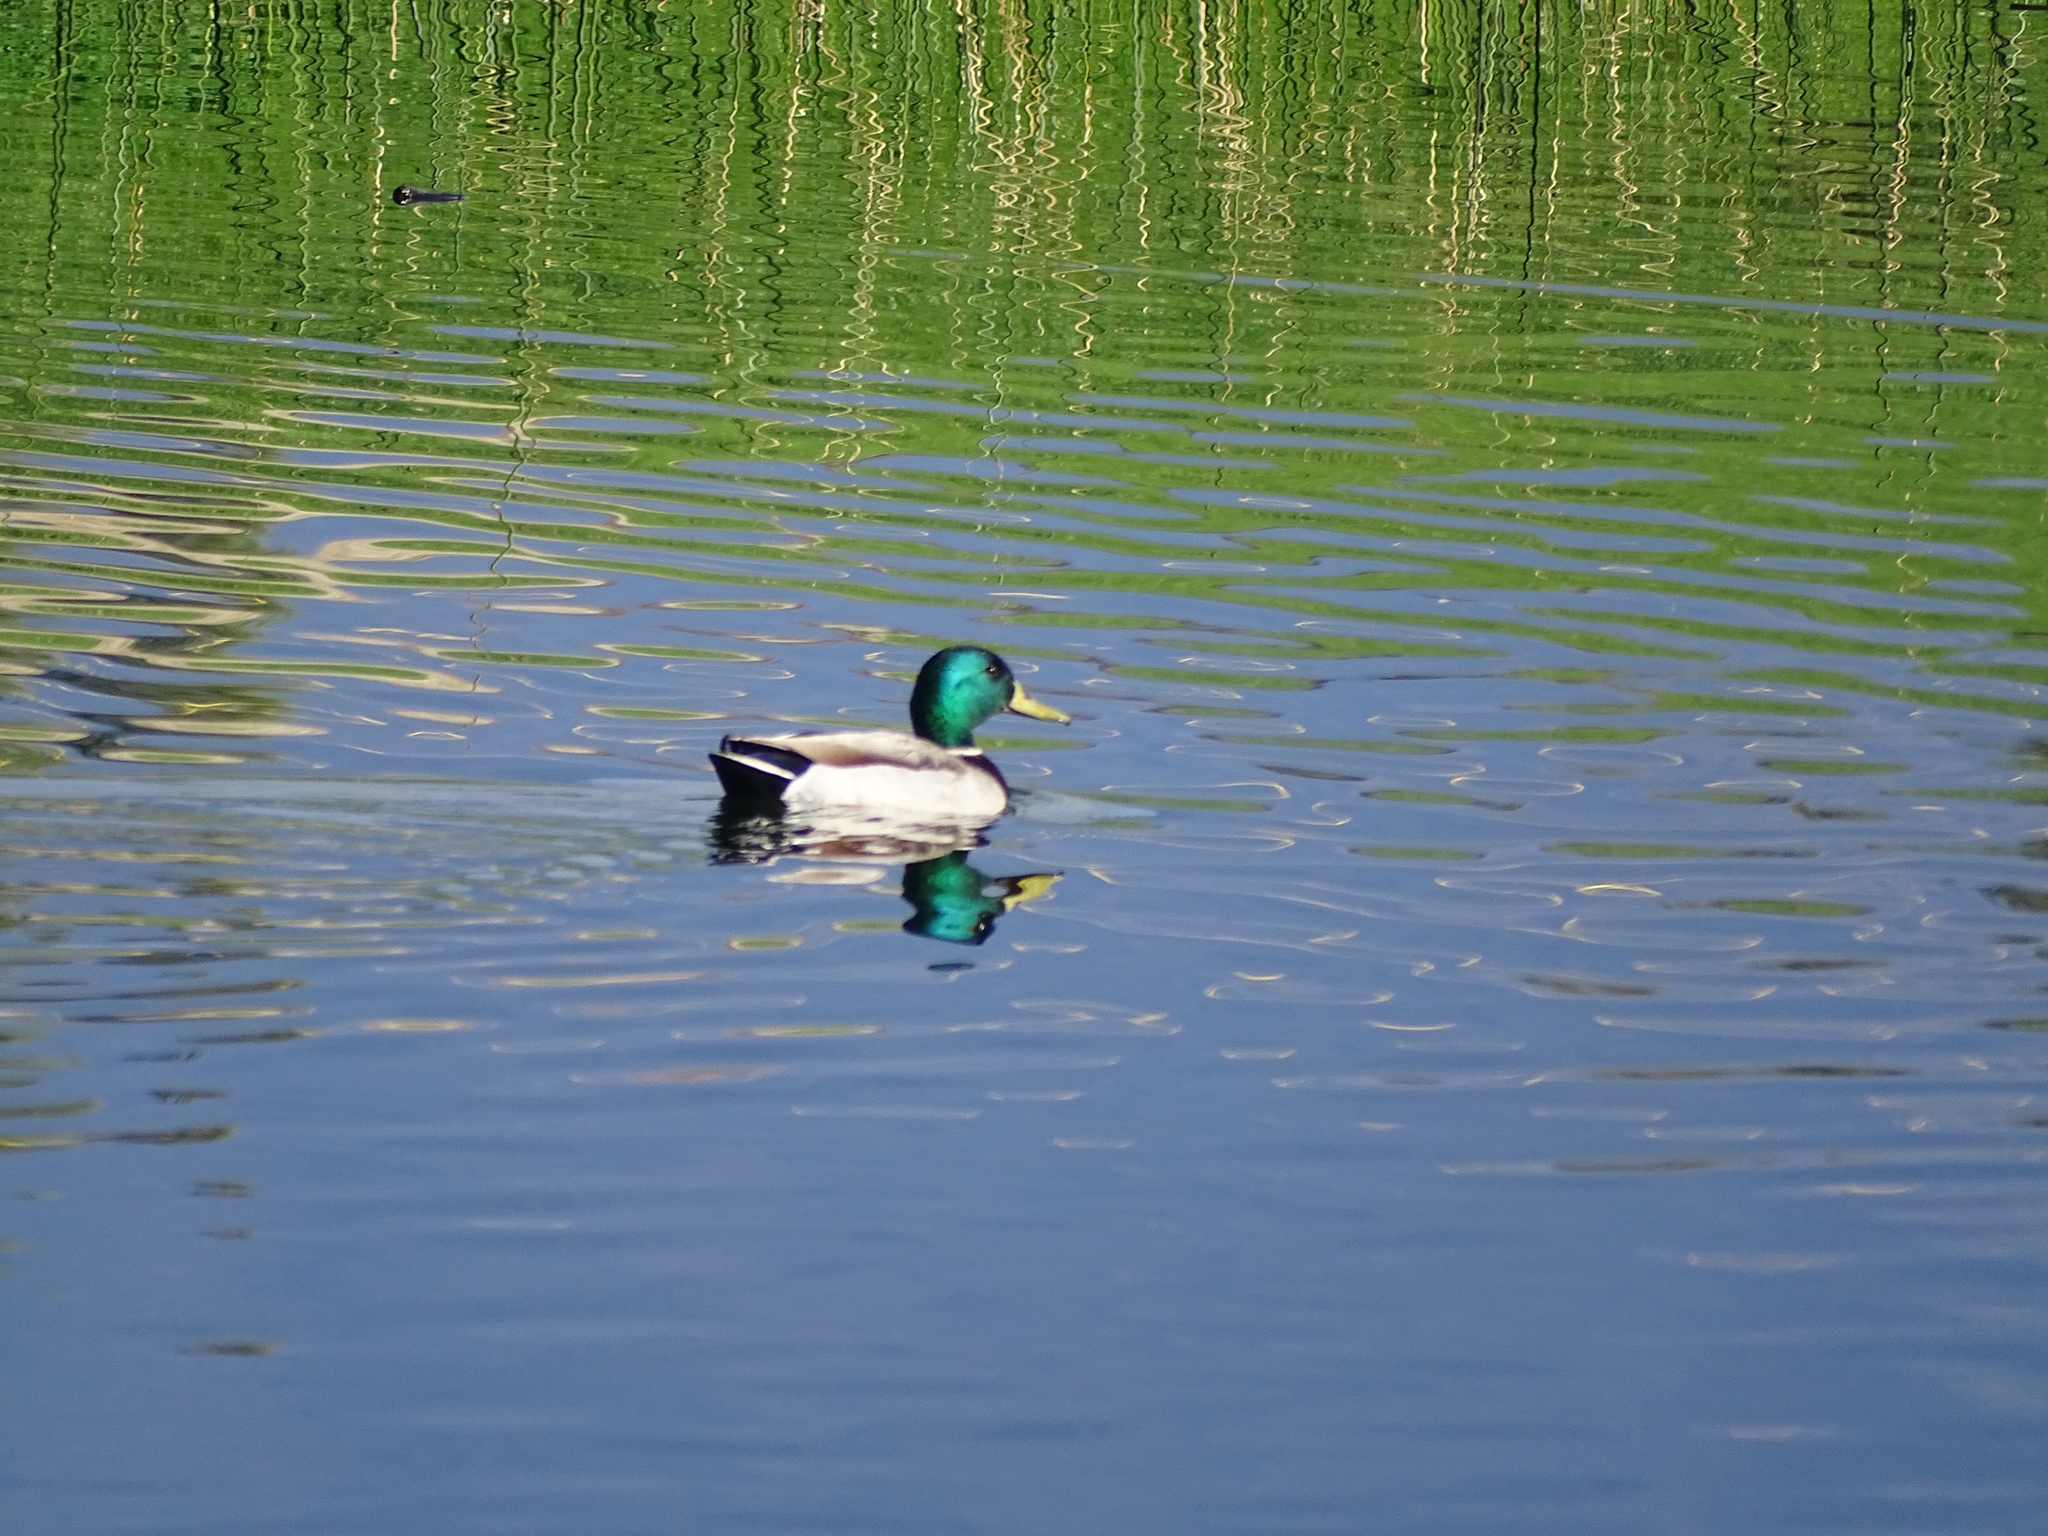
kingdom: Animalia
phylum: Chordata
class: Aves
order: Anseriformes
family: Anatidae
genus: Anas
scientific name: Anas platyrhynchos
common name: Mallard
